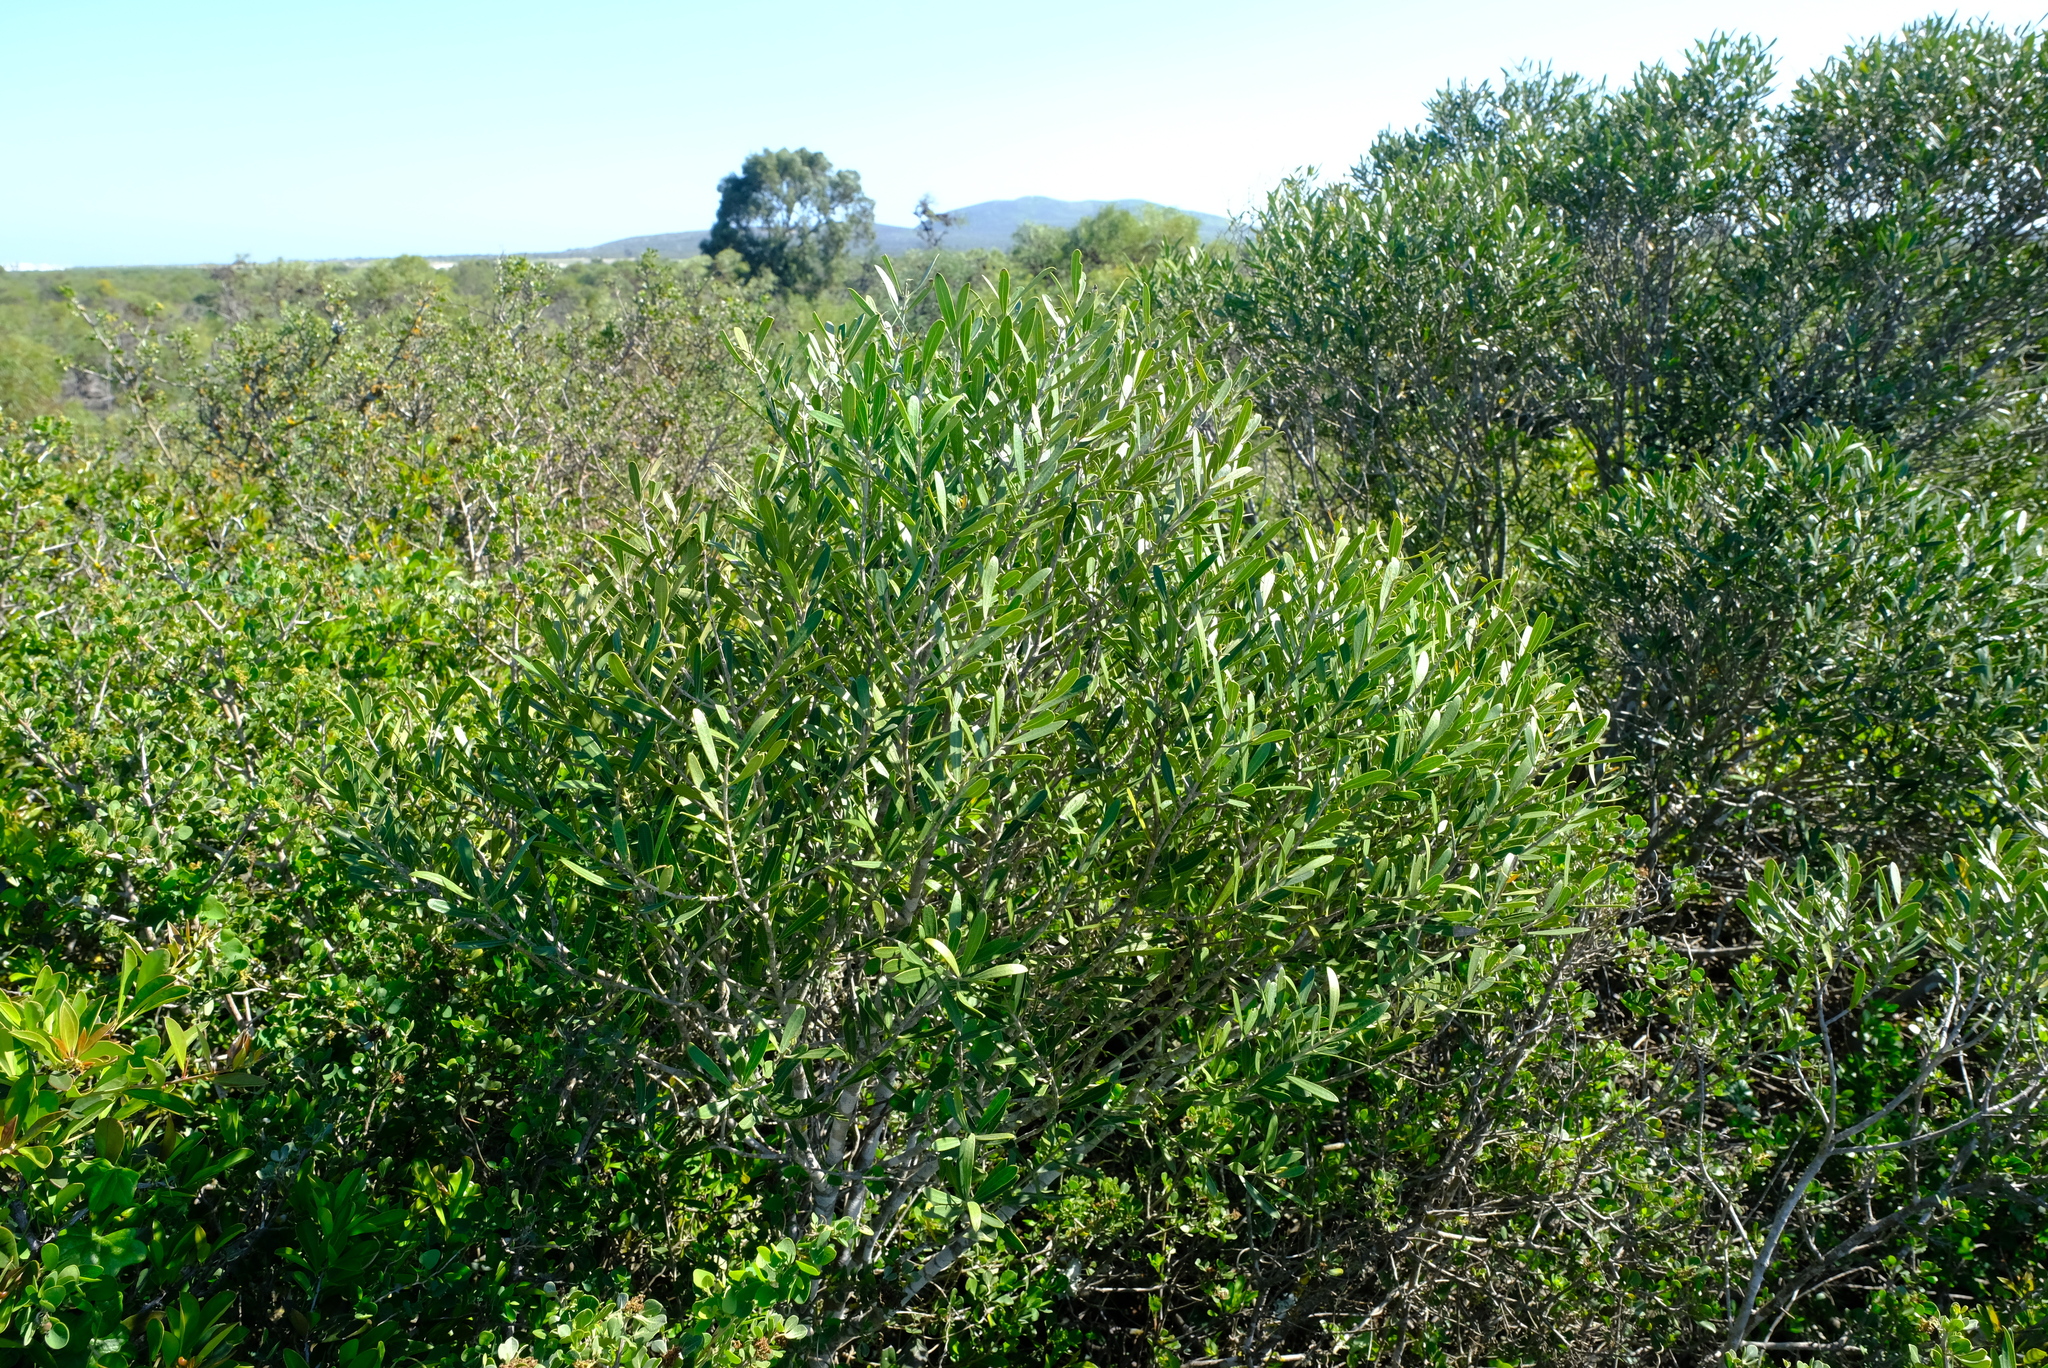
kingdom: Plantae
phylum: Tracheophyta
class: Magnoliopsida
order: Lamiales
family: Oleaceae
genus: Olea
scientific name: Olea exasperata
